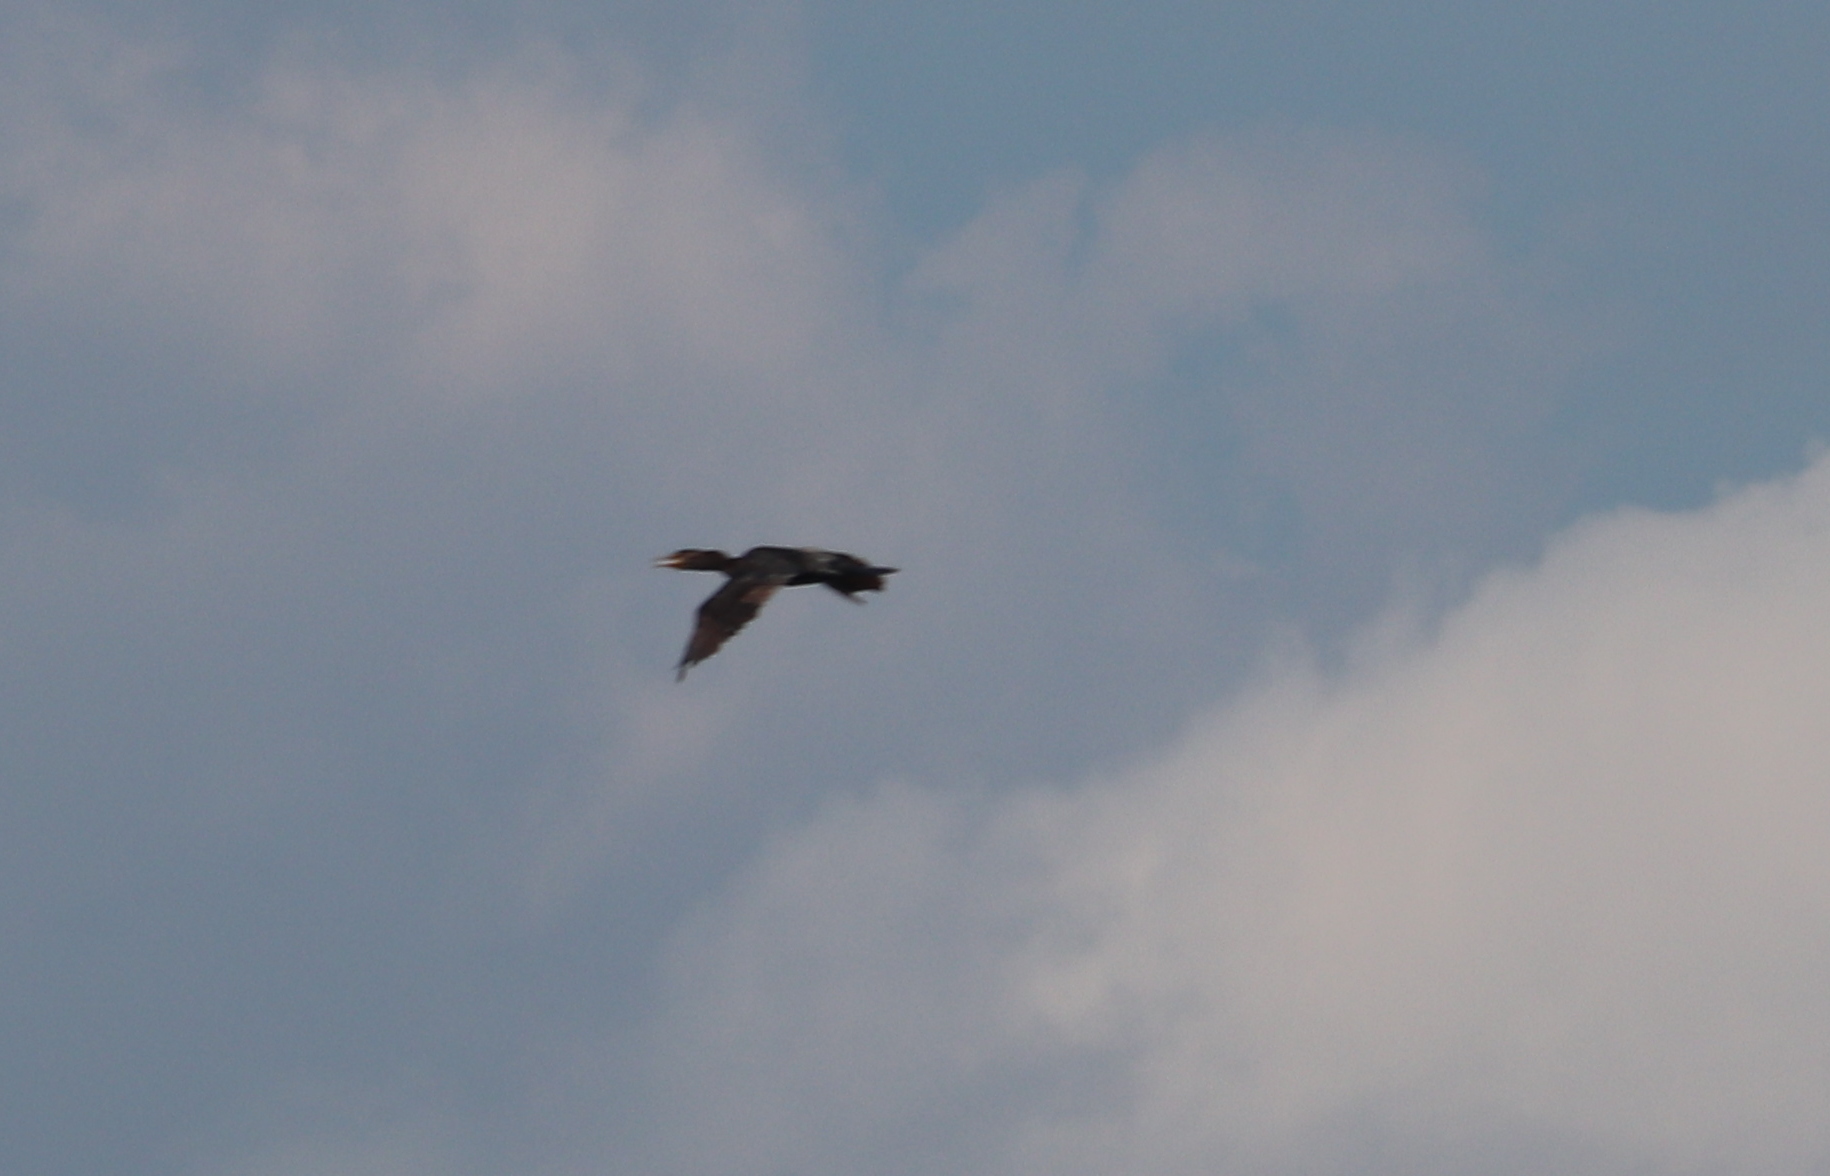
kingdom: Animalia
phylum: Chordata
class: Aves
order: Suliformes
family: Phalacrocoracidae
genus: Phalacrocorax
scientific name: Phalacrocorax auritus
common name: Double-crested cormorant
